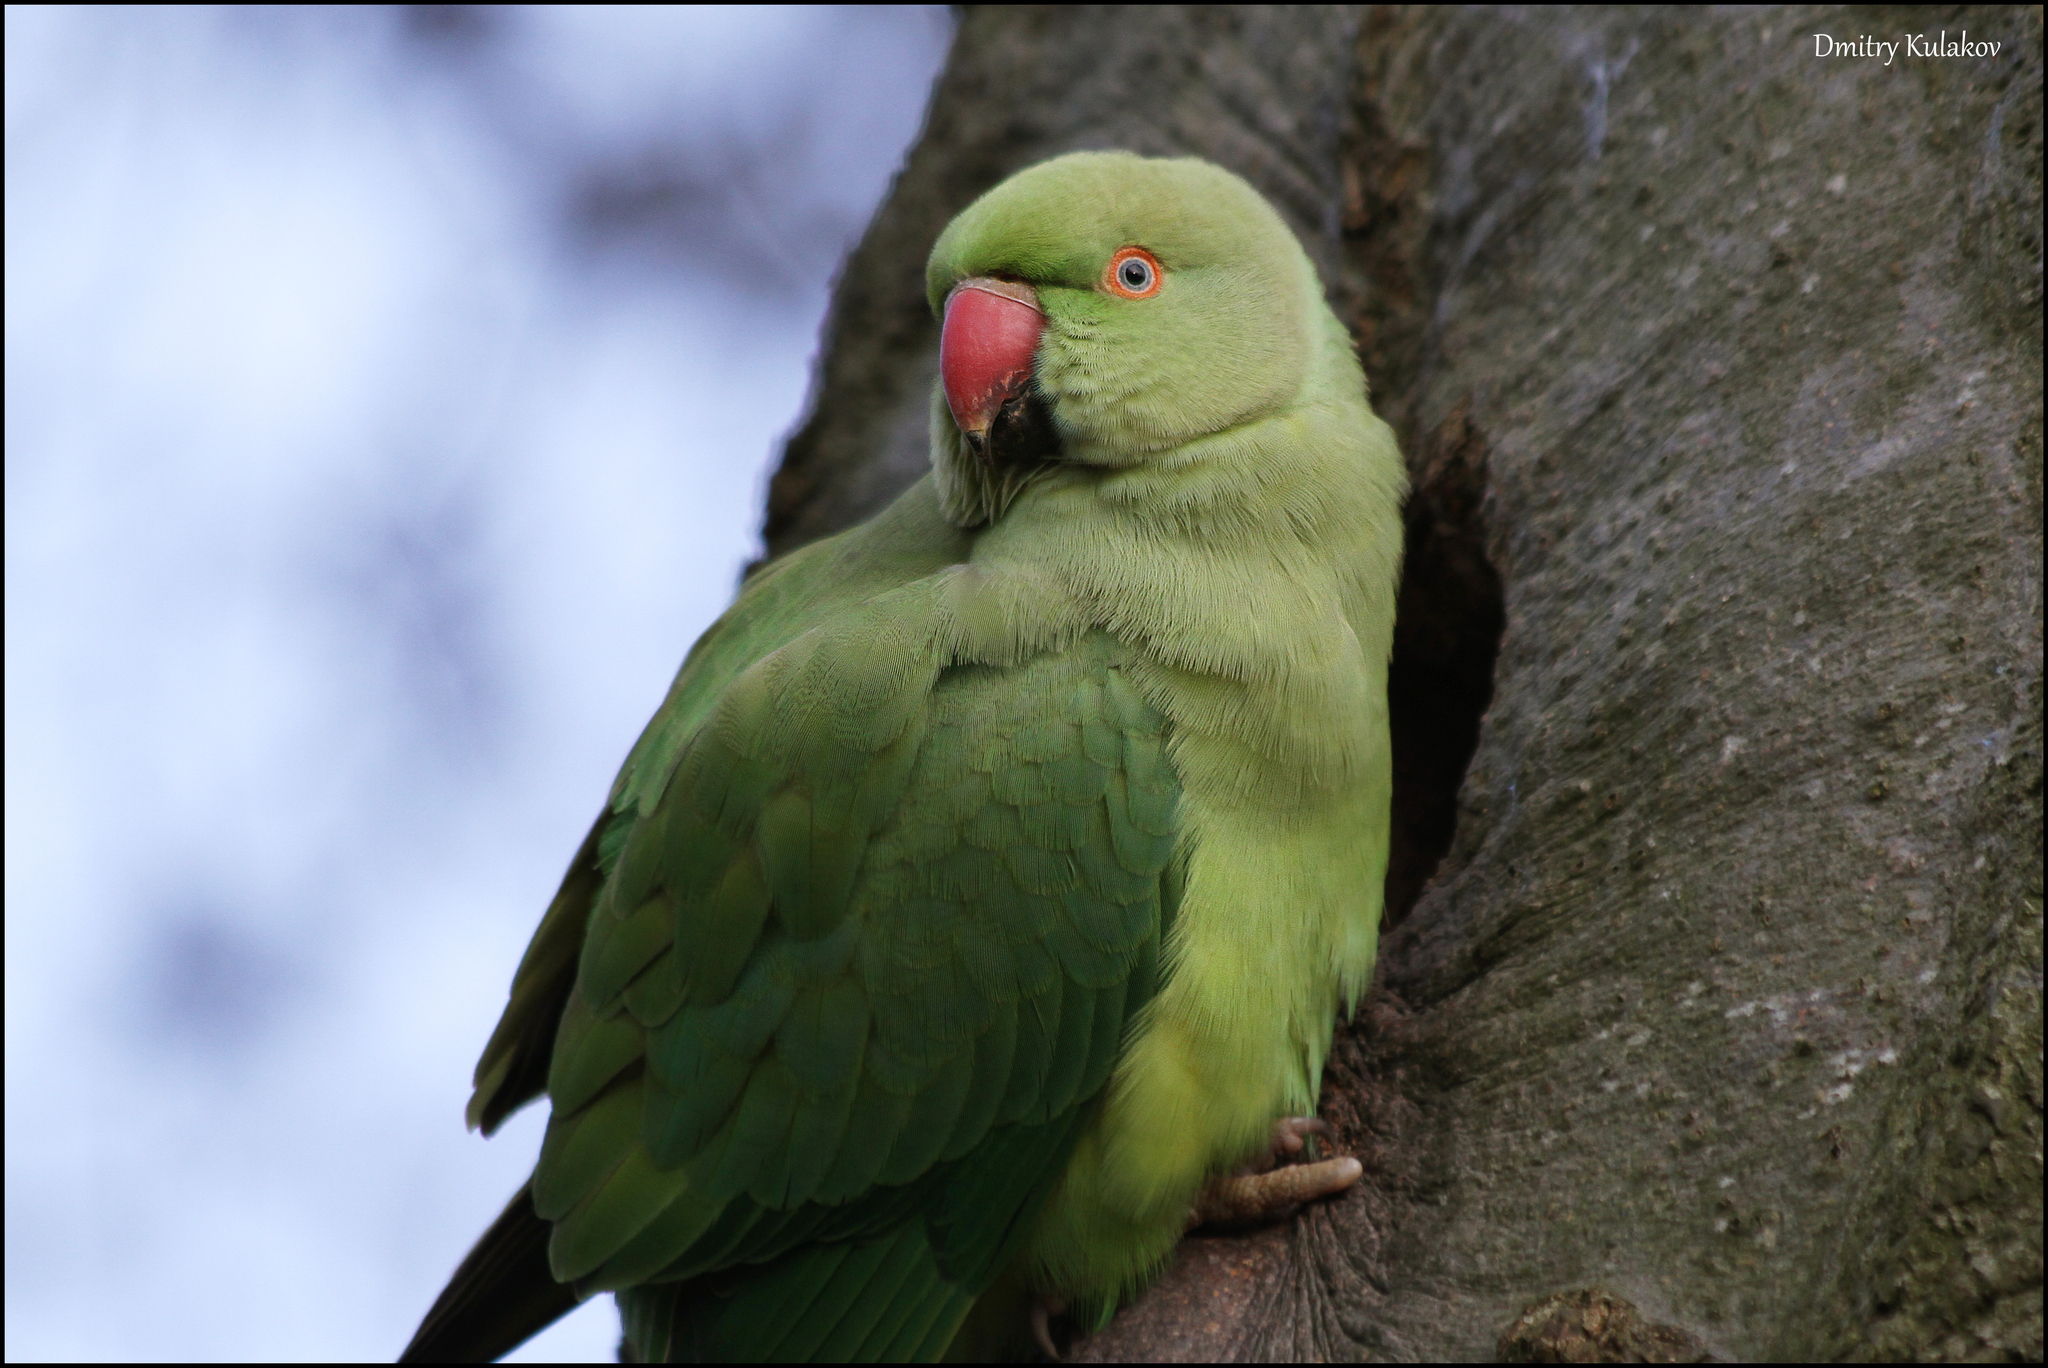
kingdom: Animalia
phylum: Chordata
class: Aves
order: Psittaciformes
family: Psittacidae
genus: Psittacula
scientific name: Psittacula krameri
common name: Rose-ringed parakeet
